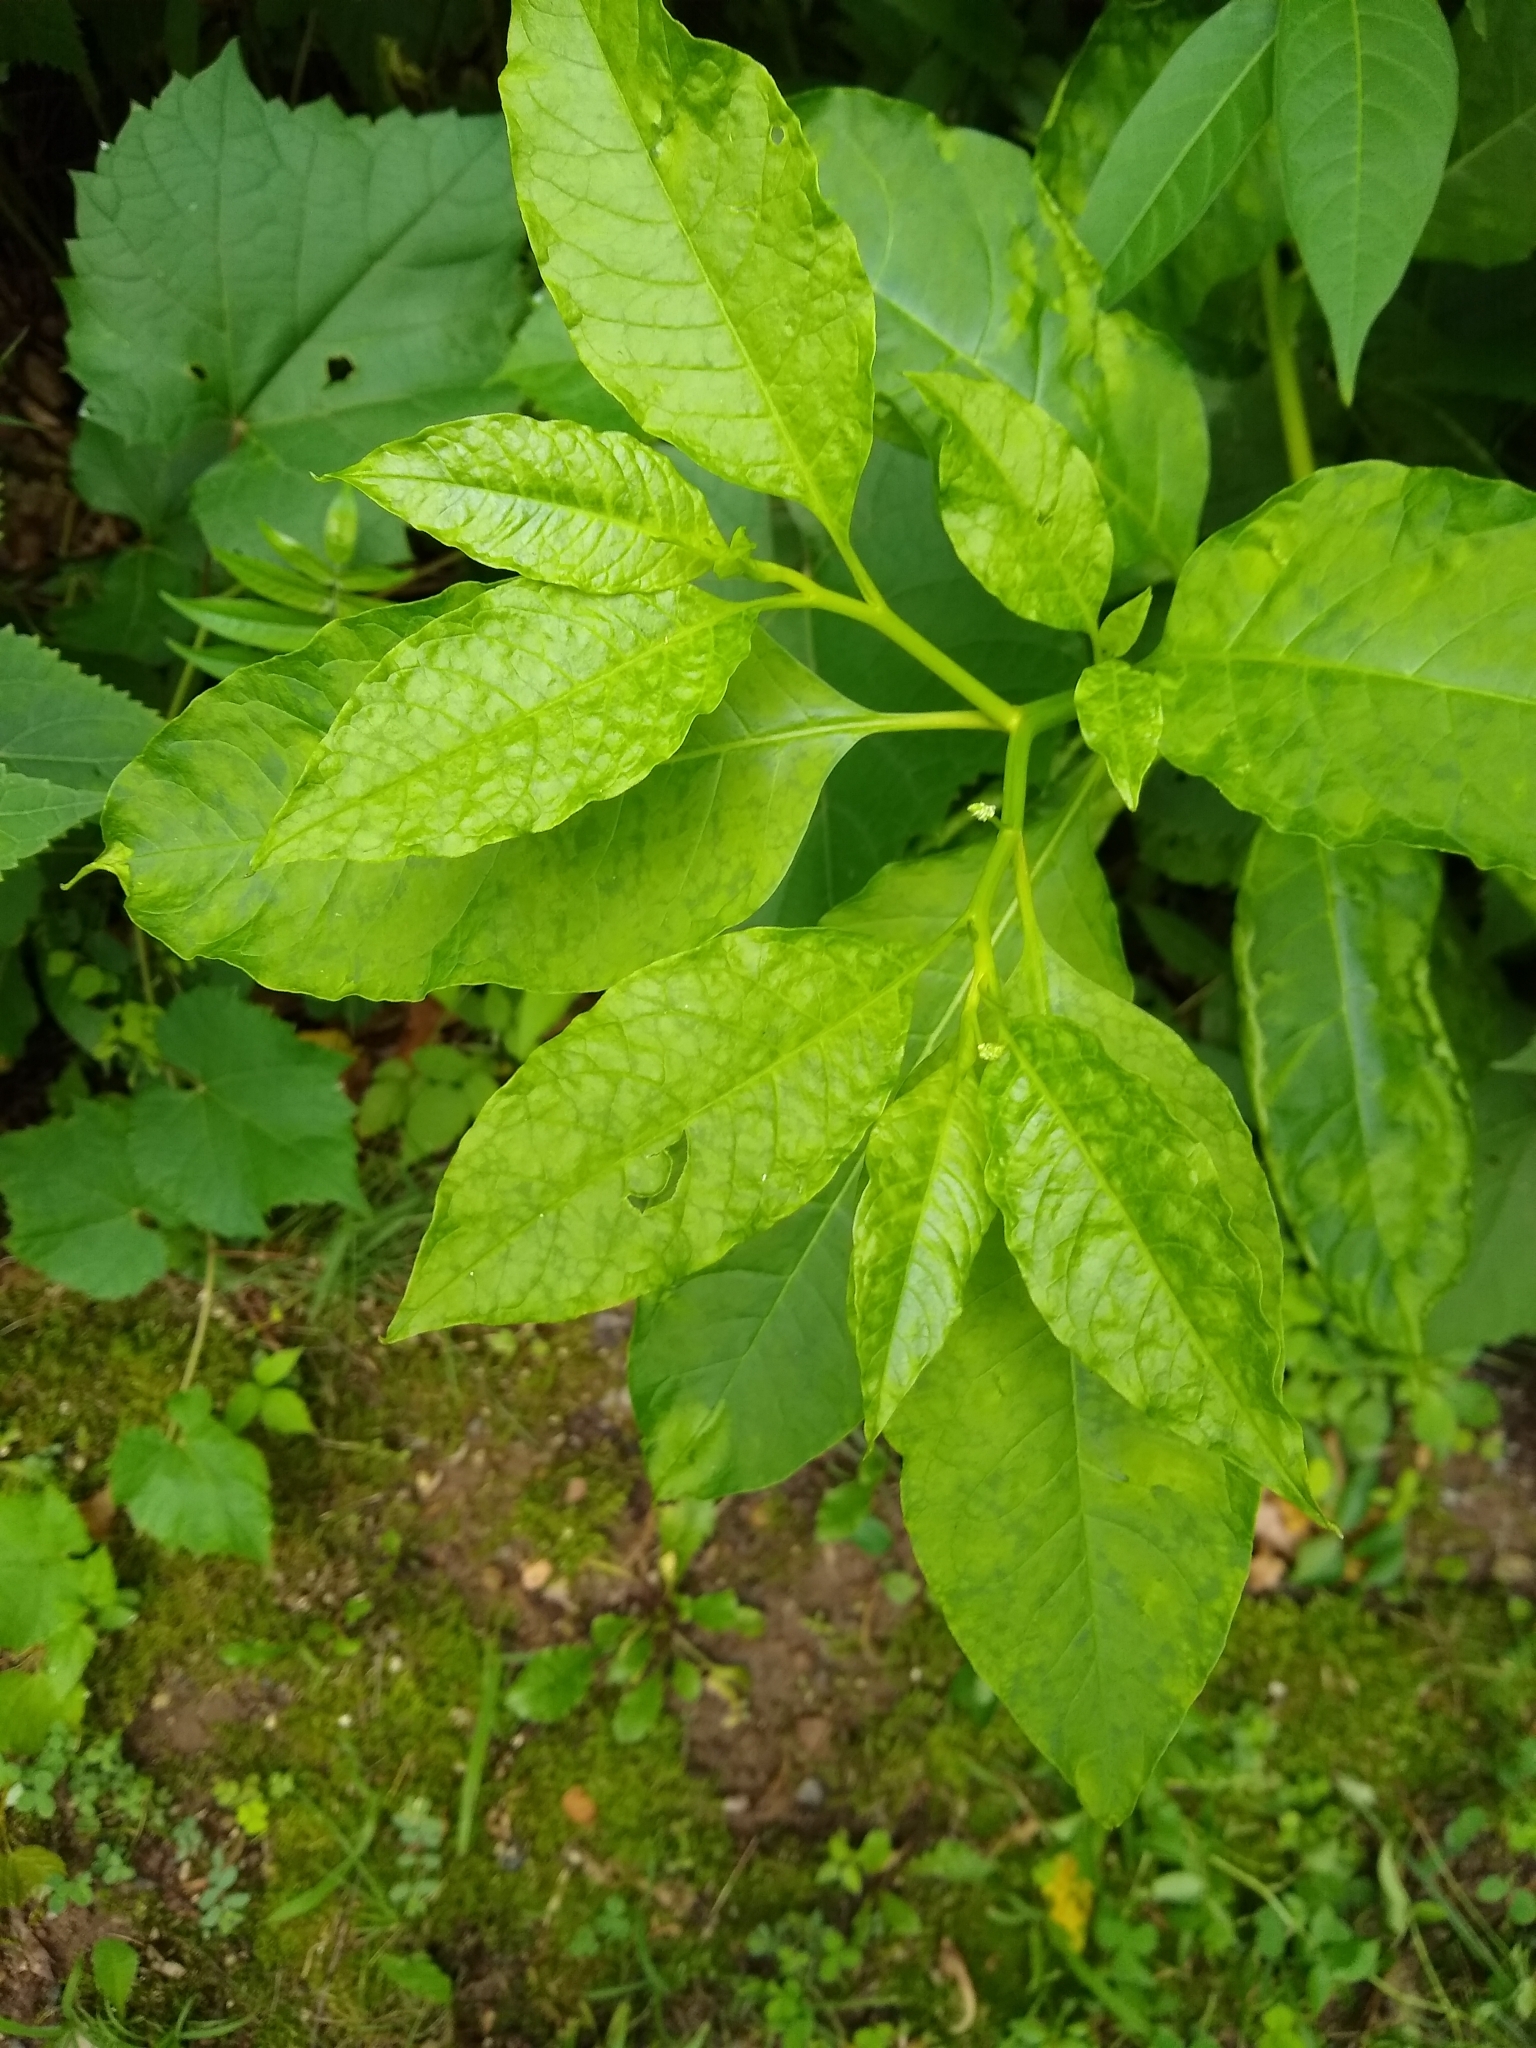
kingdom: Viruses
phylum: Pisuviricota
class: Stelpaviricetes
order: Patatavirales
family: Potyviridae
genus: Potyvirus
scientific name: Potyvirus Pokeweed mosaic virus
